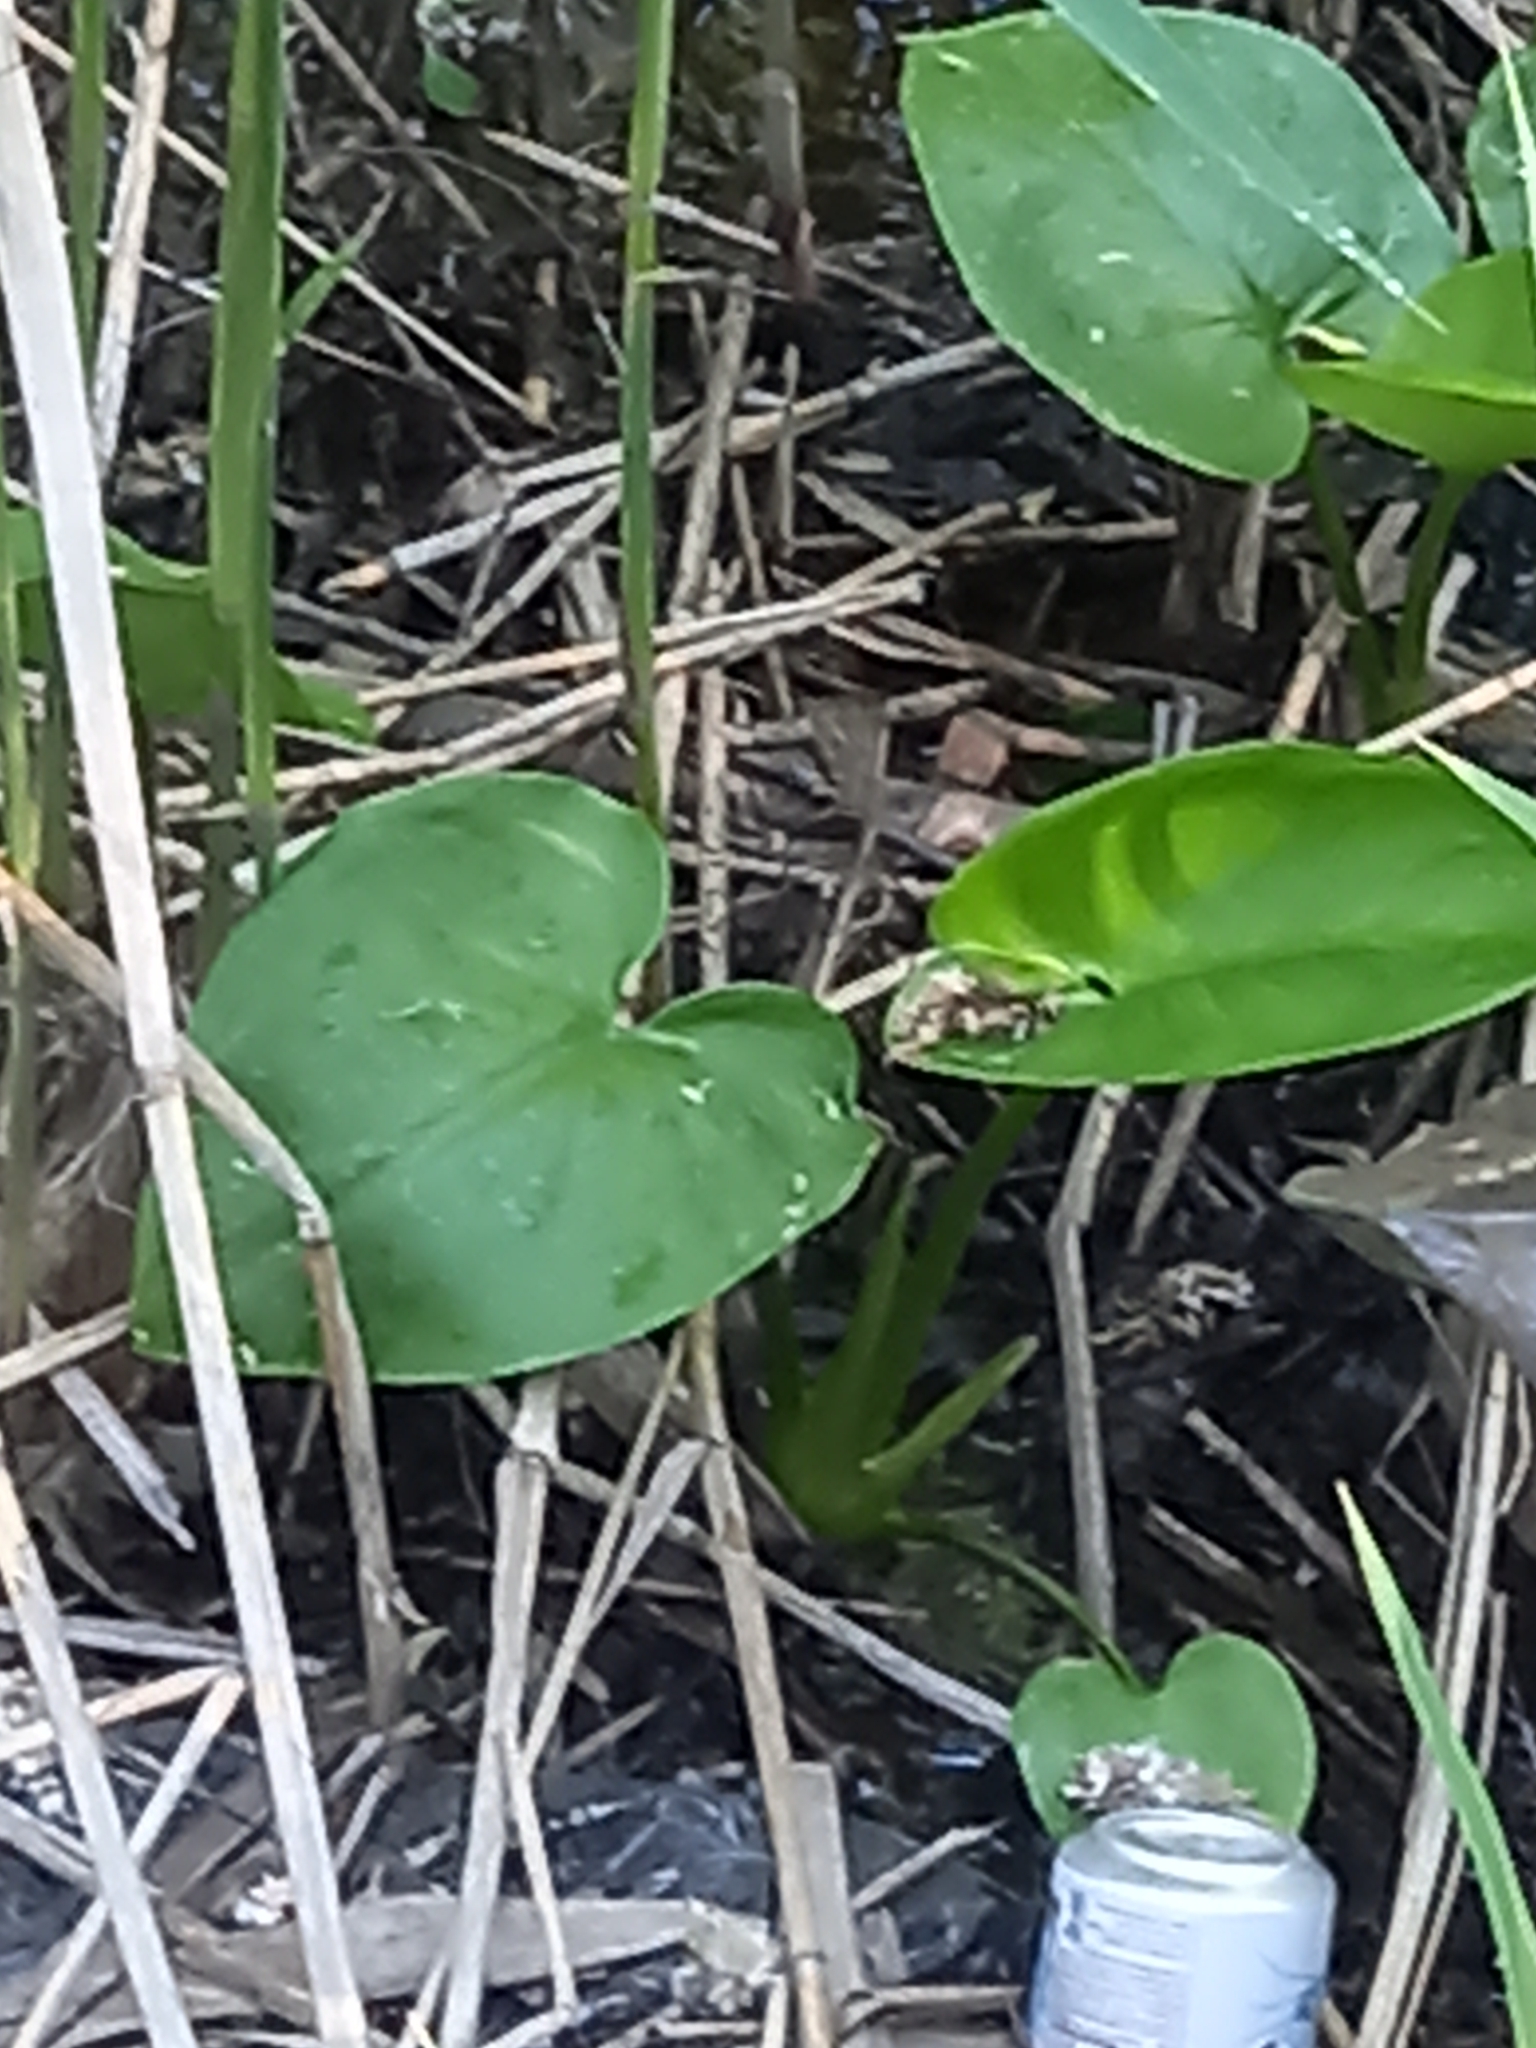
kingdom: Plantae
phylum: Tracheophyta
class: Liliopsida
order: Alismatales
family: Araceae
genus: Calla
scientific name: Calla palustris
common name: Bog arum
